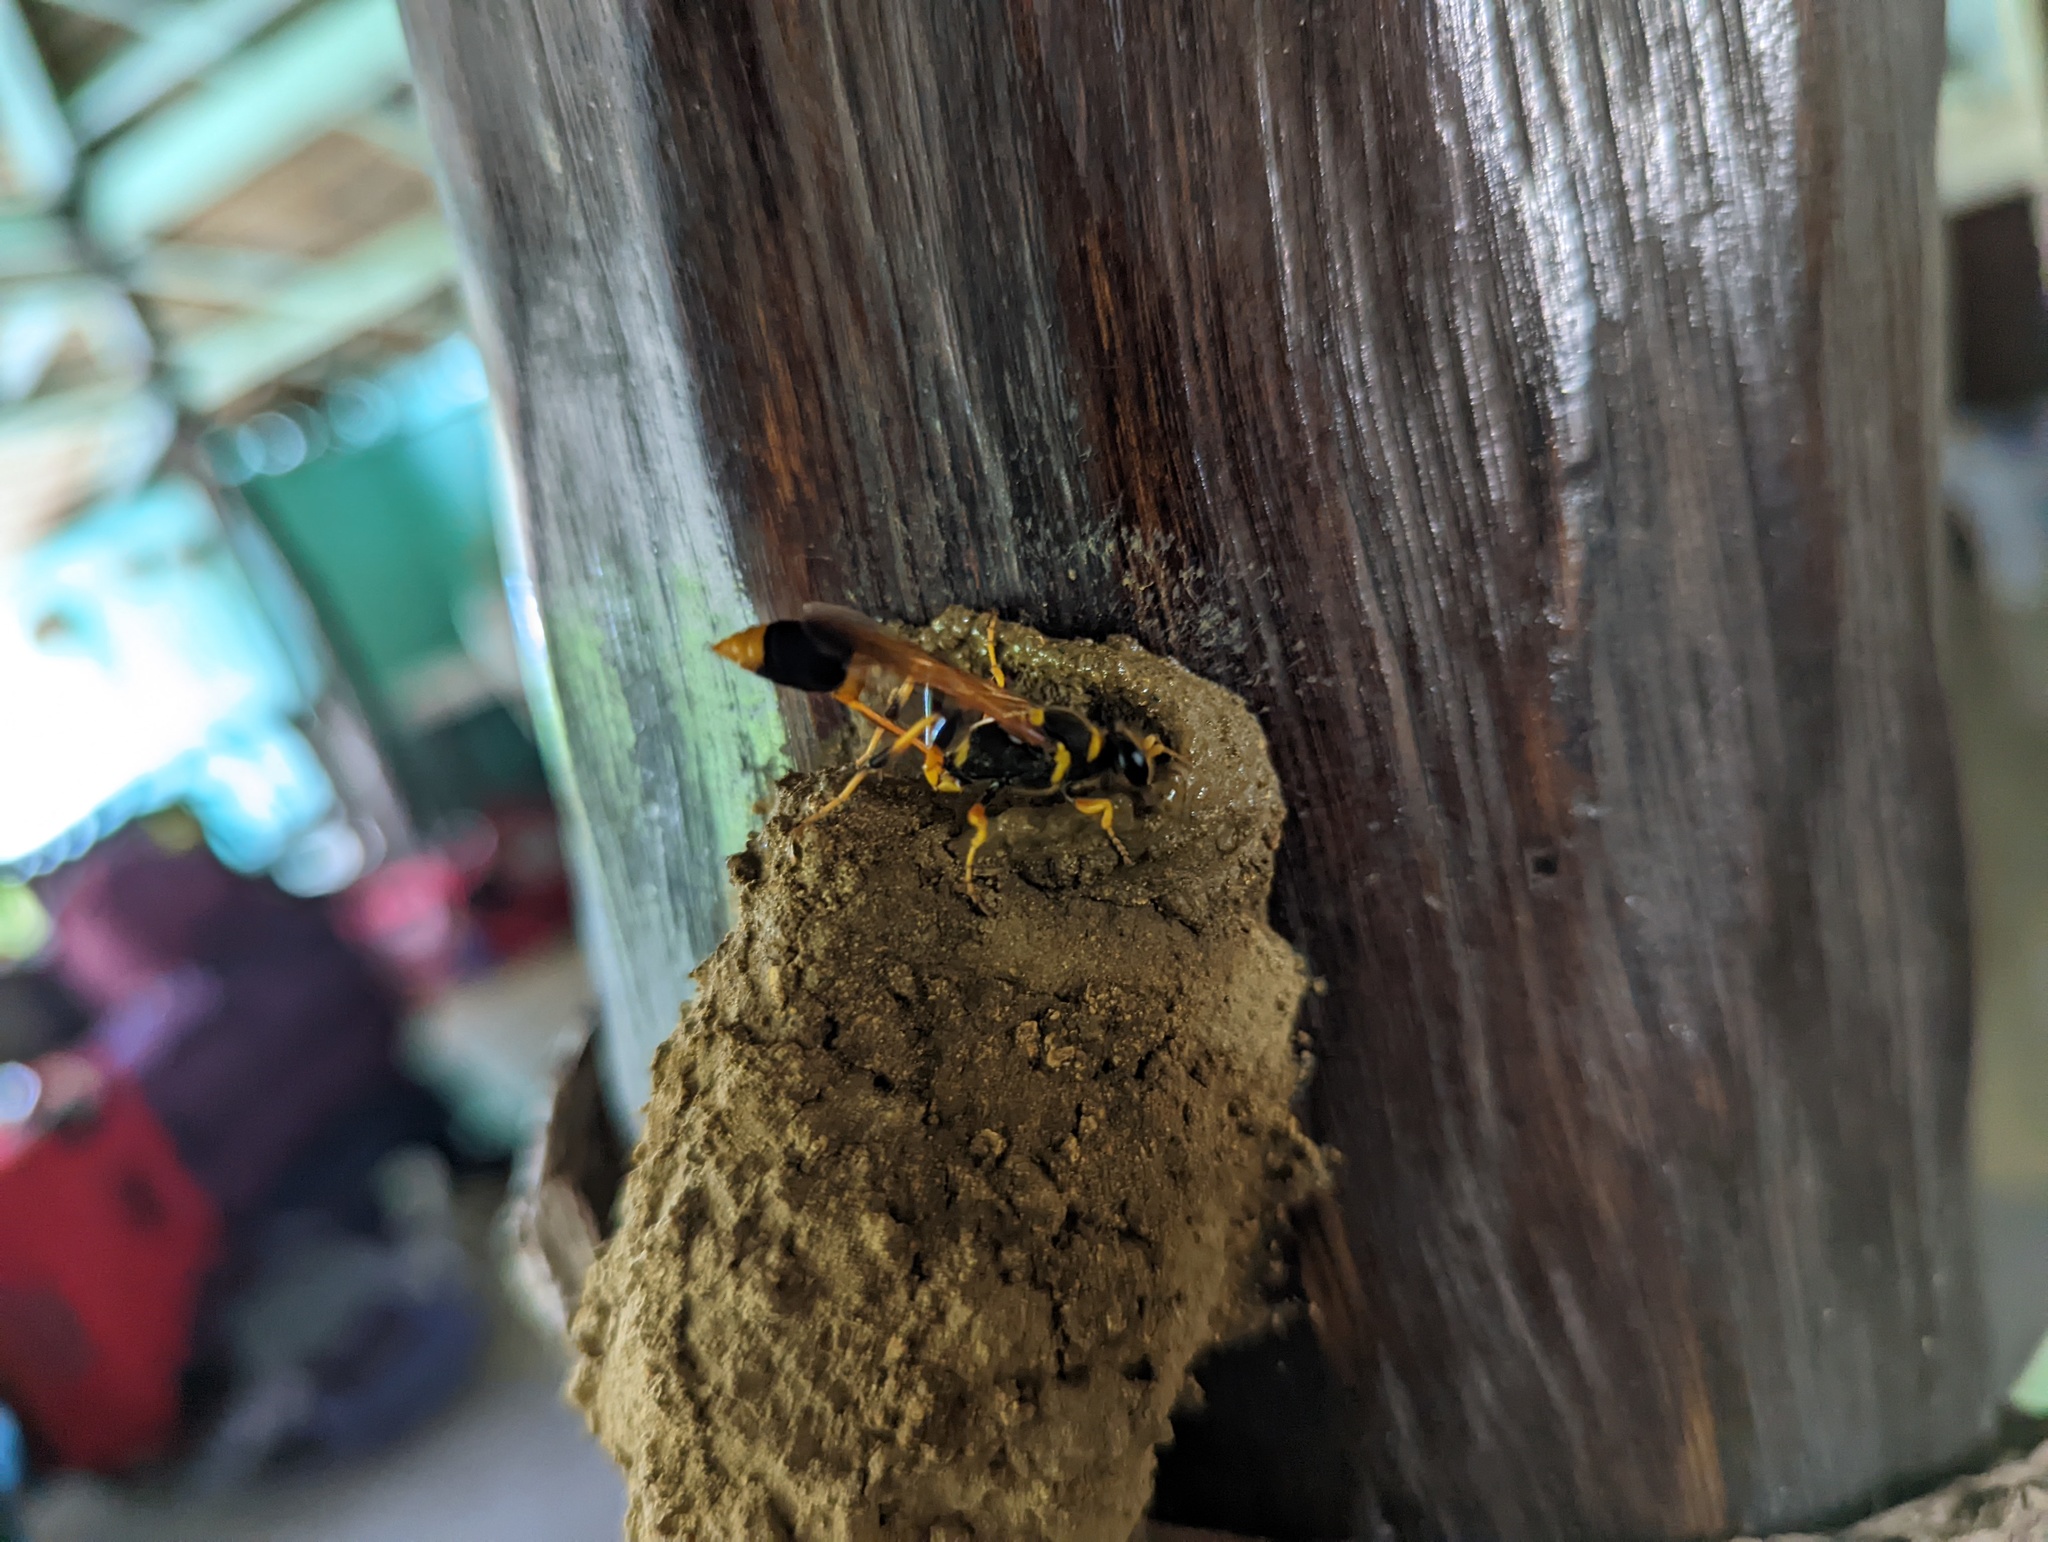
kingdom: Animalia
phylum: Arthropoda
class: Insecta
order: Hymenoptera
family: Sphecidae
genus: Sceliphron
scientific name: Sceliphron laetum
